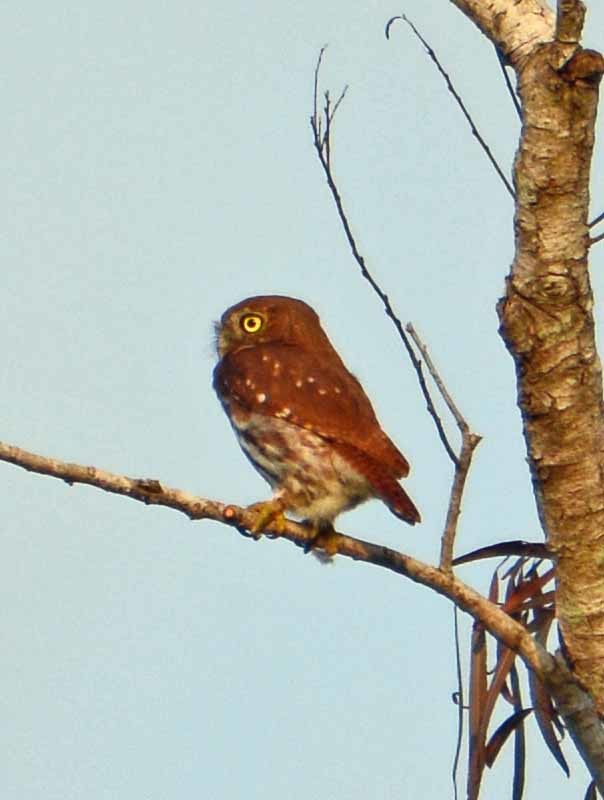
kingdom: Animalia
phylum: Chordata
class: Aves
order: Strigiformes
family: Strigidae
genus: Glaucidium
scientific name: Glaucidium brasilianum
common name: Ferruginous pygmy-owl
